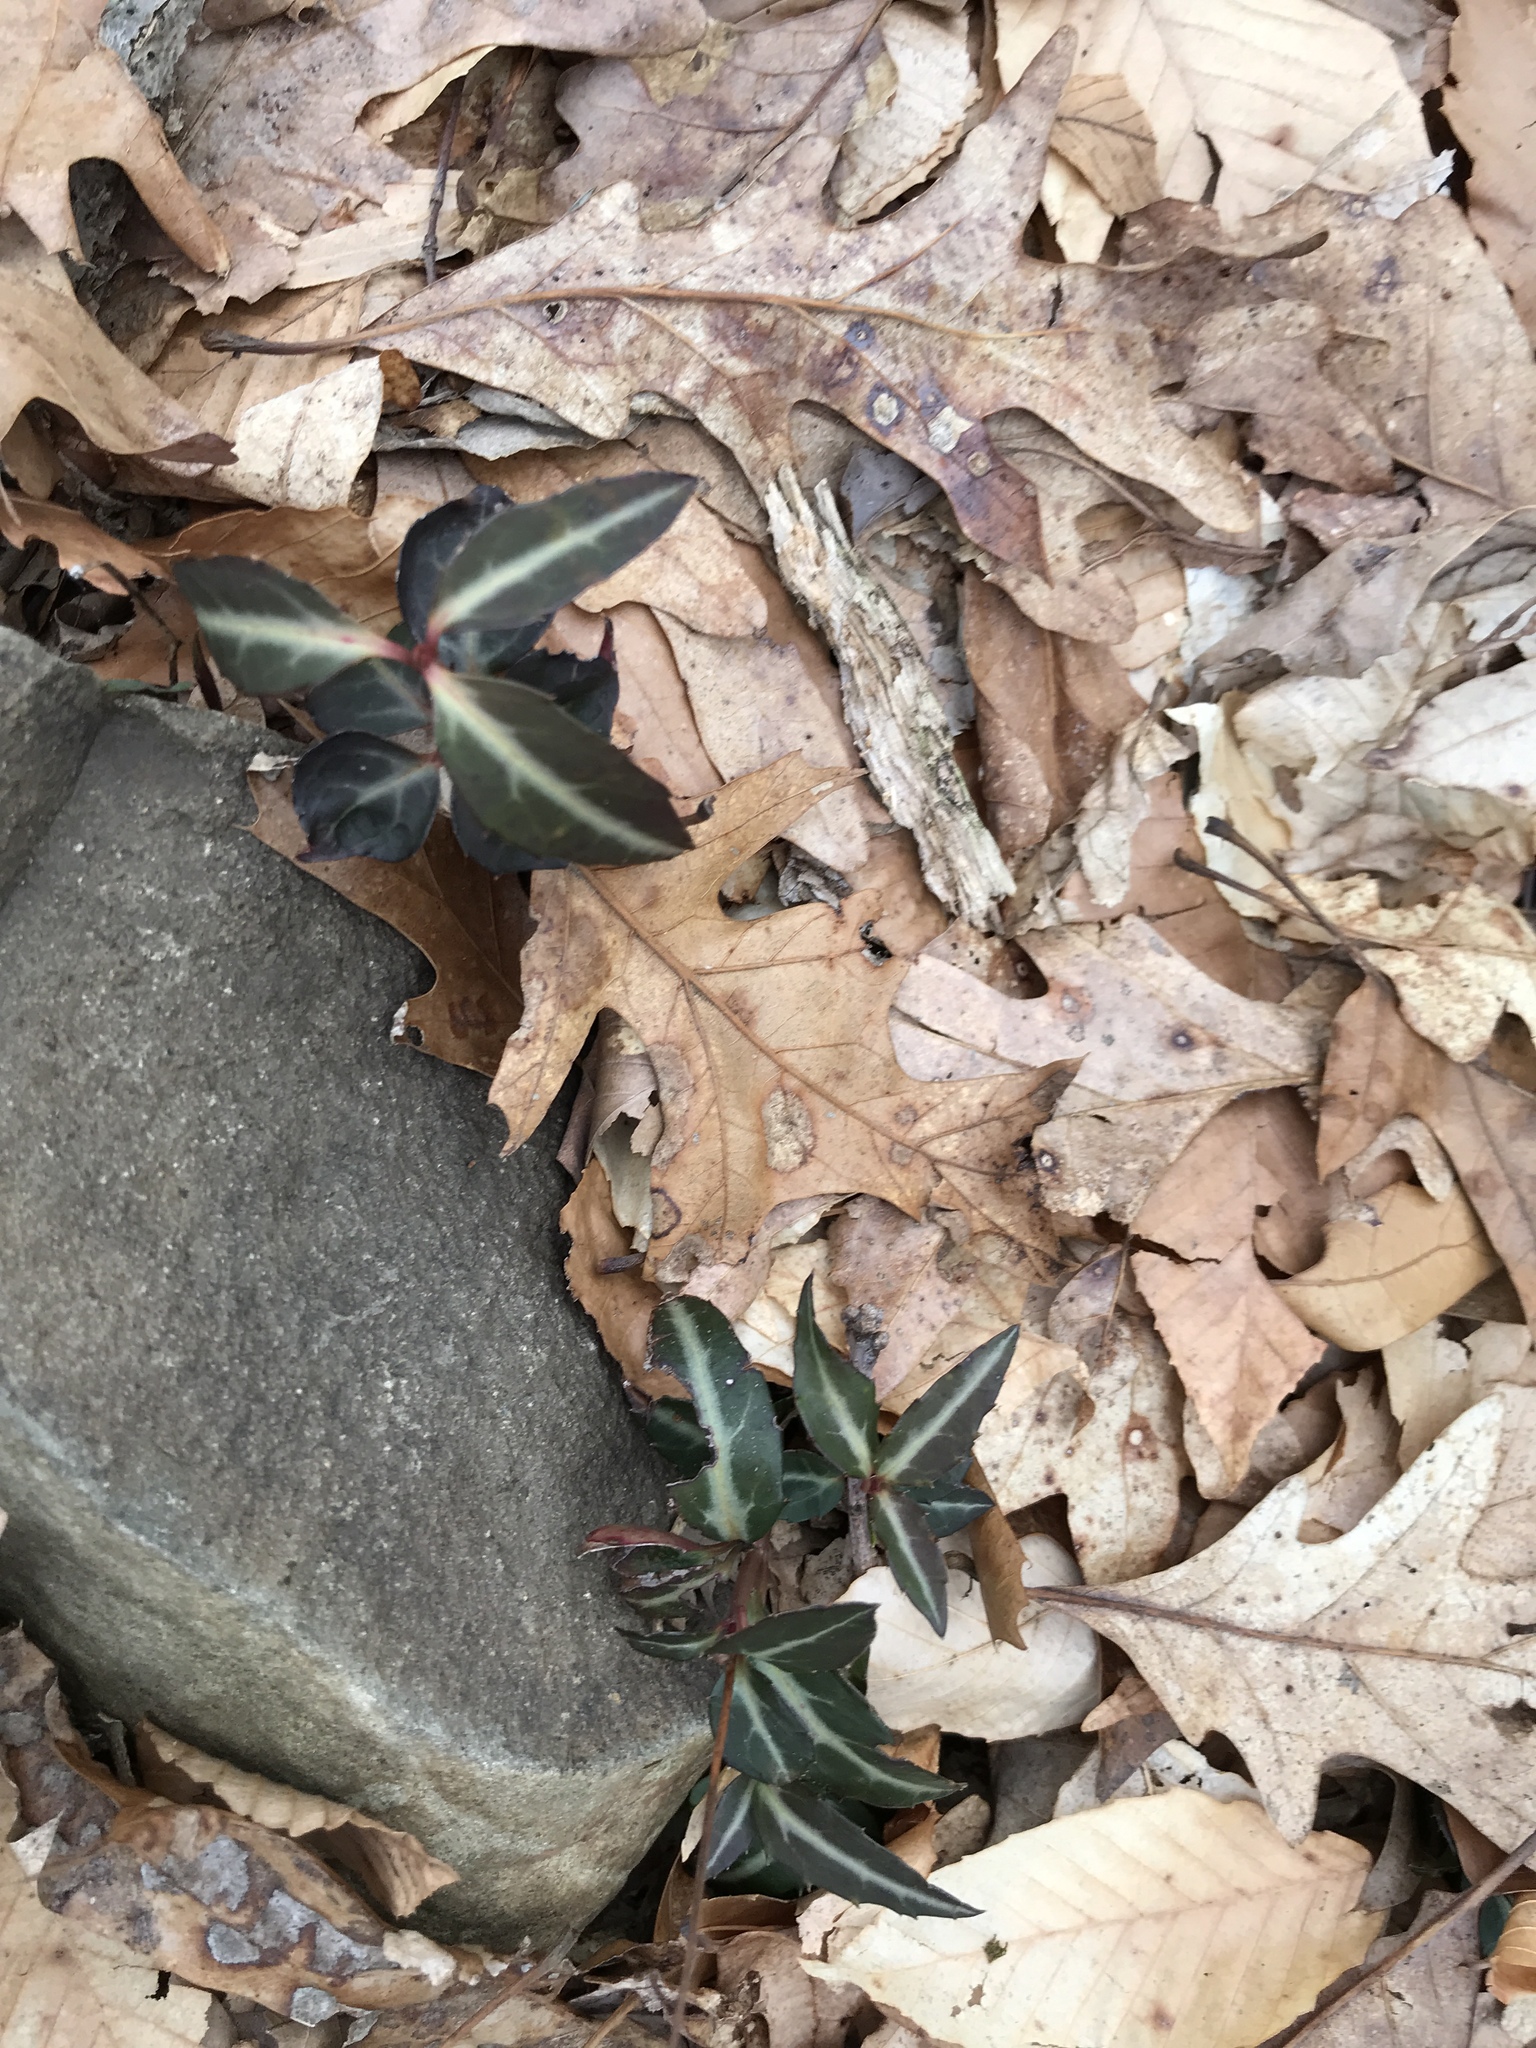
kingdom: Plantae
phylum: Tracheophyta
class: Magnoliopsida
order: Ericales
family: Ericaceae
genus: Chimaphila
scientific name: Chimaphila maculata
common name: Spotted pipsissewa
